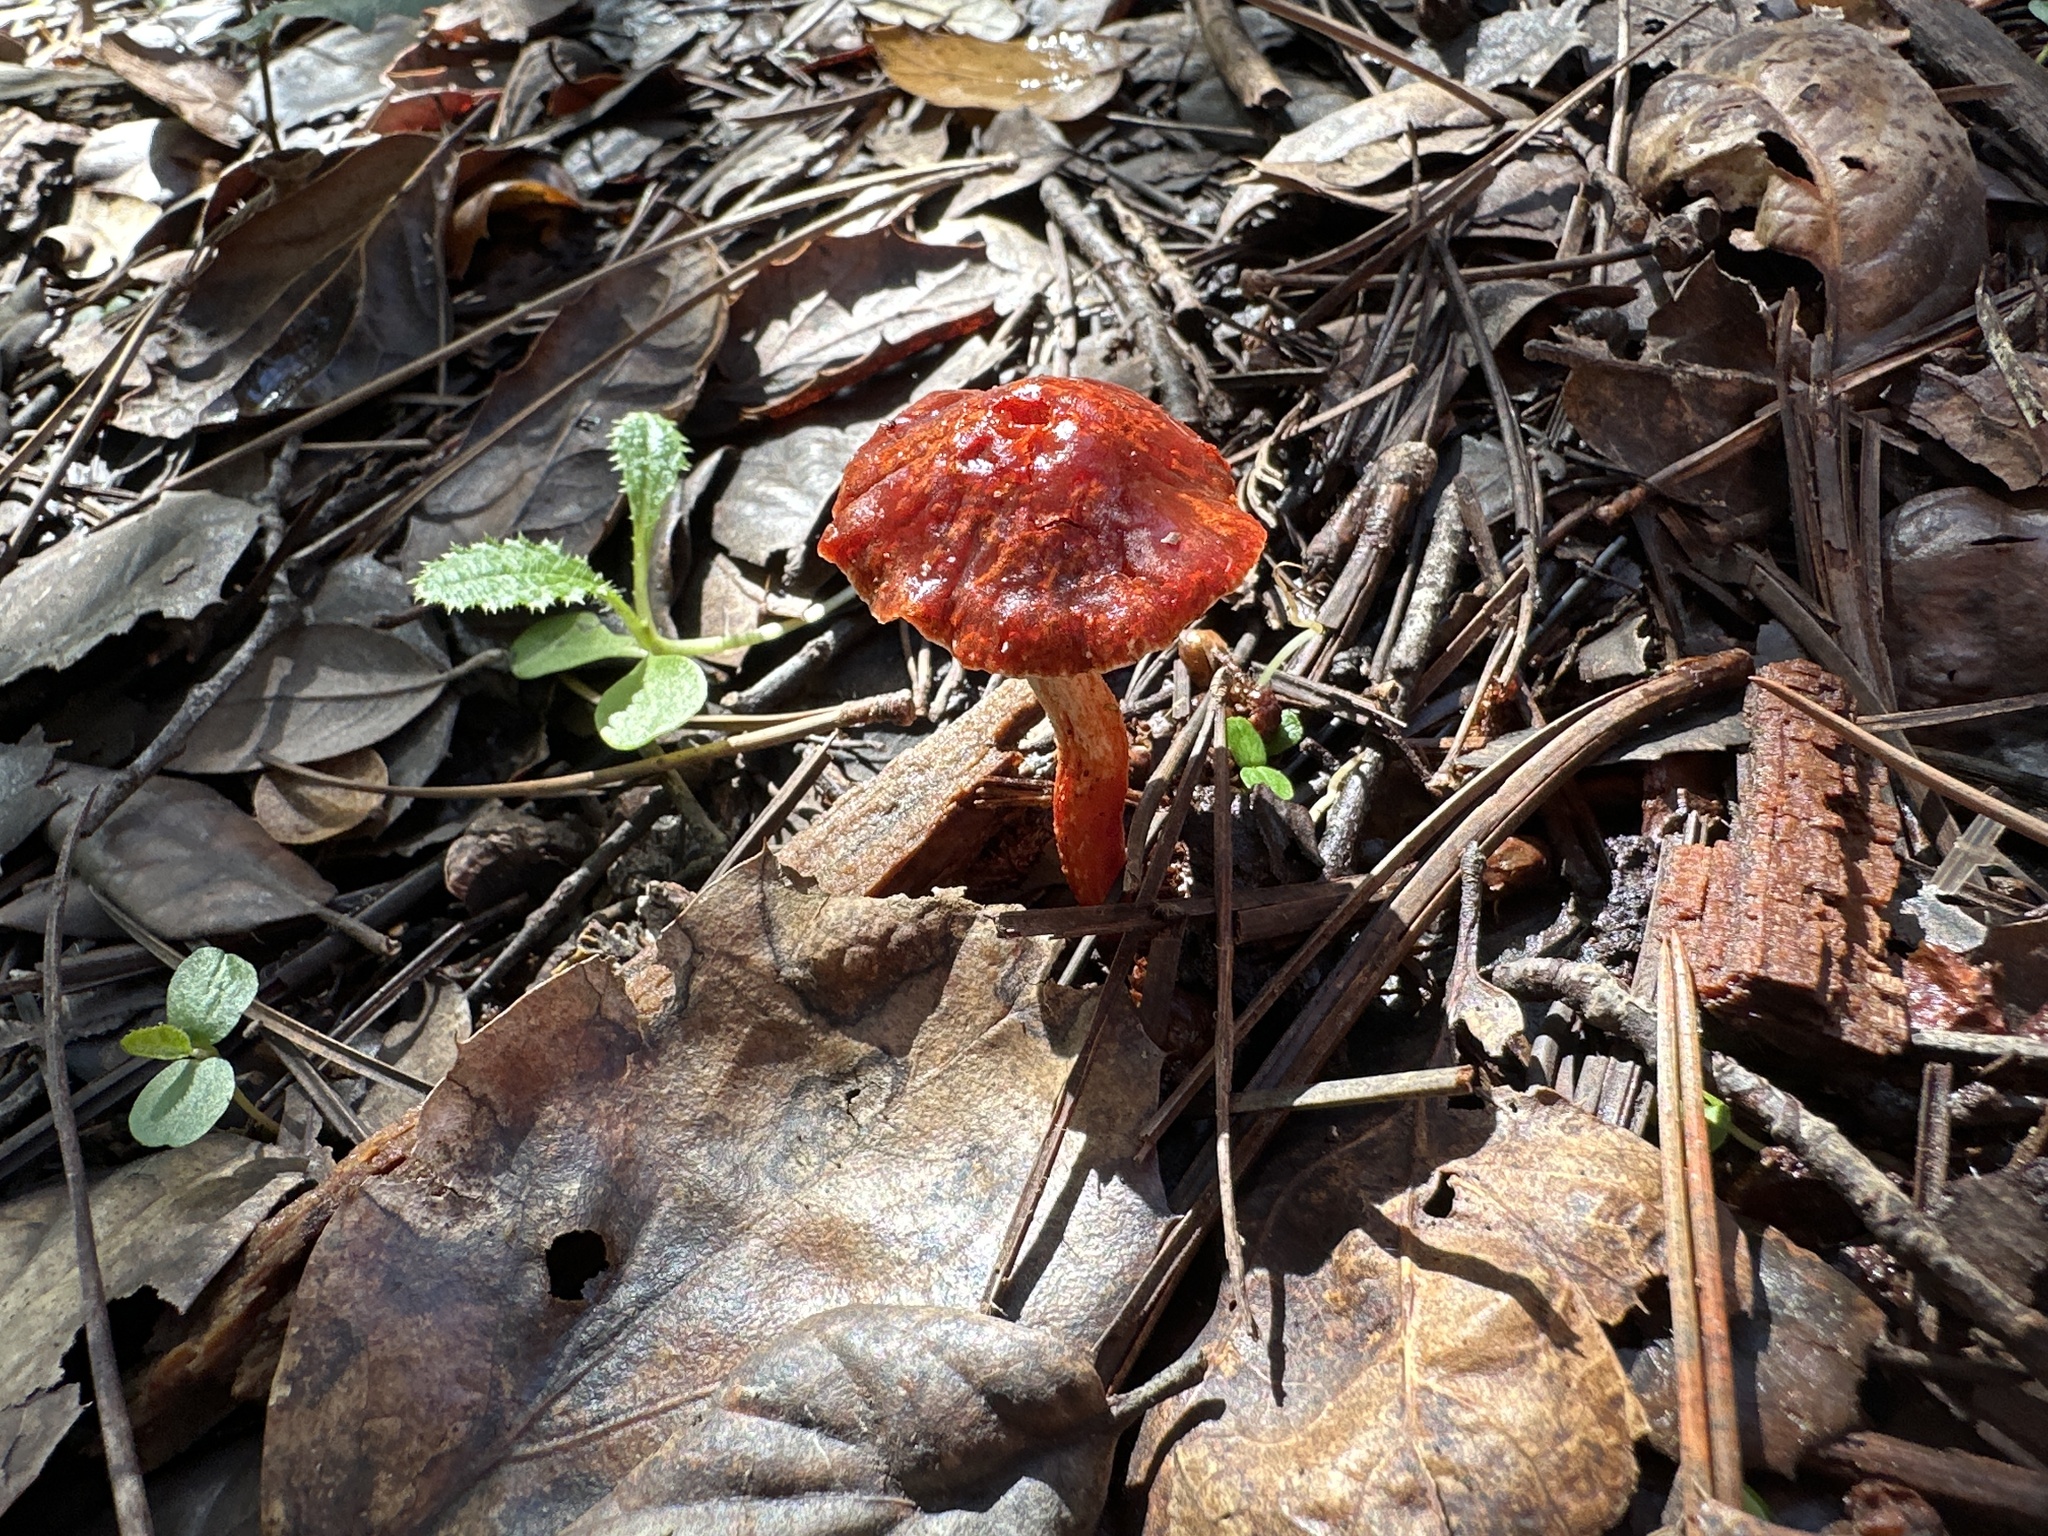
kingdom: Fungi
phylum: Basidiomycota
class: Agaricomycetes
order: Agaricales
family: Strophariaceae
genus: Leratiomyces
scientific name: Leratiomyces ceres
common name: Redlead roundhead
